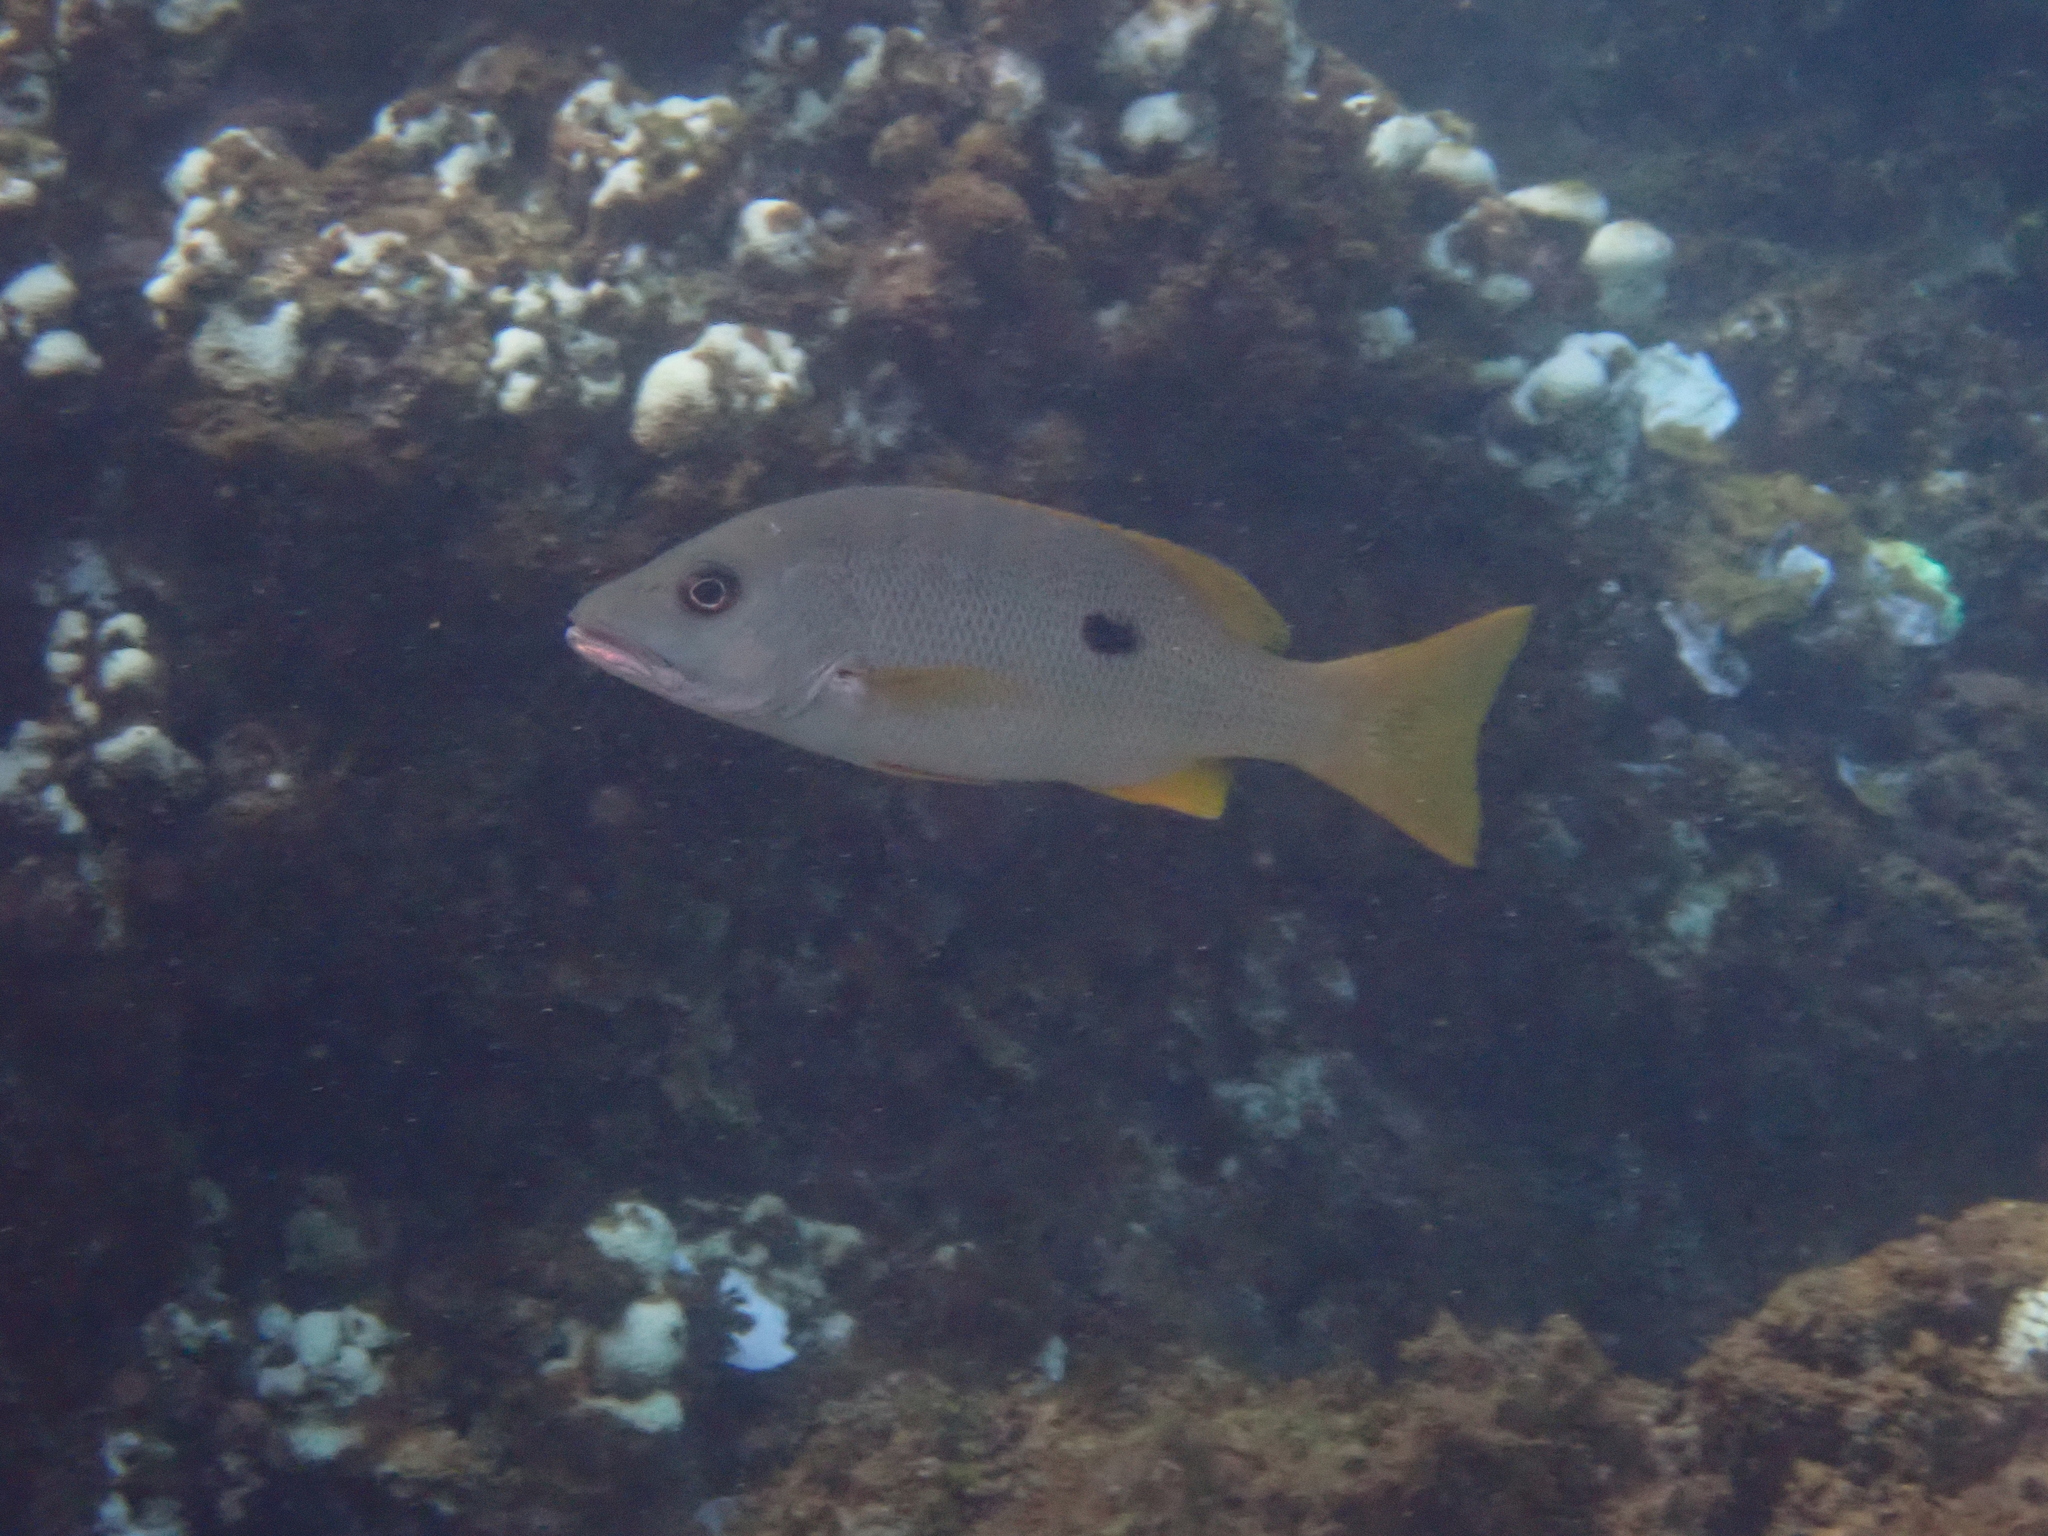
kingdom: Animalia
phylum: Chordata
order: Perciformes
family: Lutjanidae
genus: Lutjanus
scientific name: Lutjanus monostigma
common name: Onespot snapper
